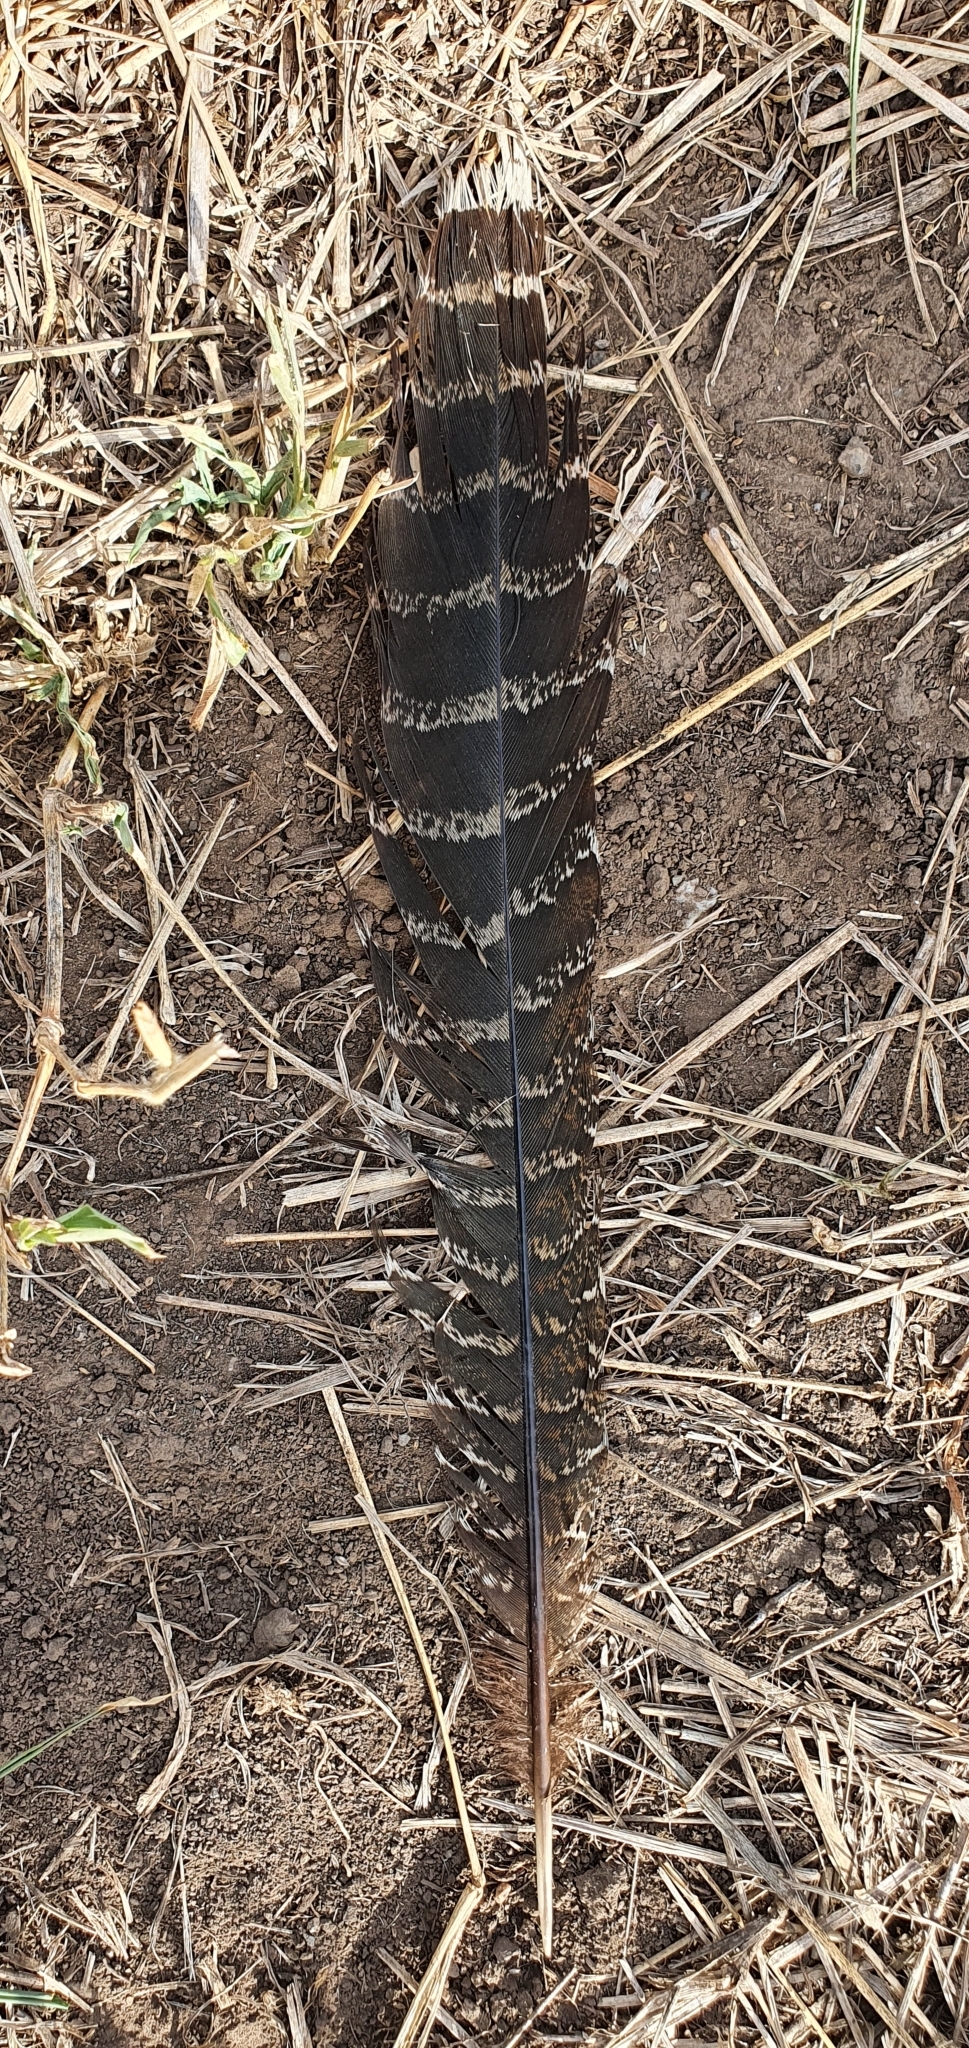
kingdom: Animalia
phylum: Chordata
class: Aves
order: Cuculiformes
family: Cuculidae
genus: Centropus
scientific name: Centropus phasianinus
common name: Pheasant coucal
